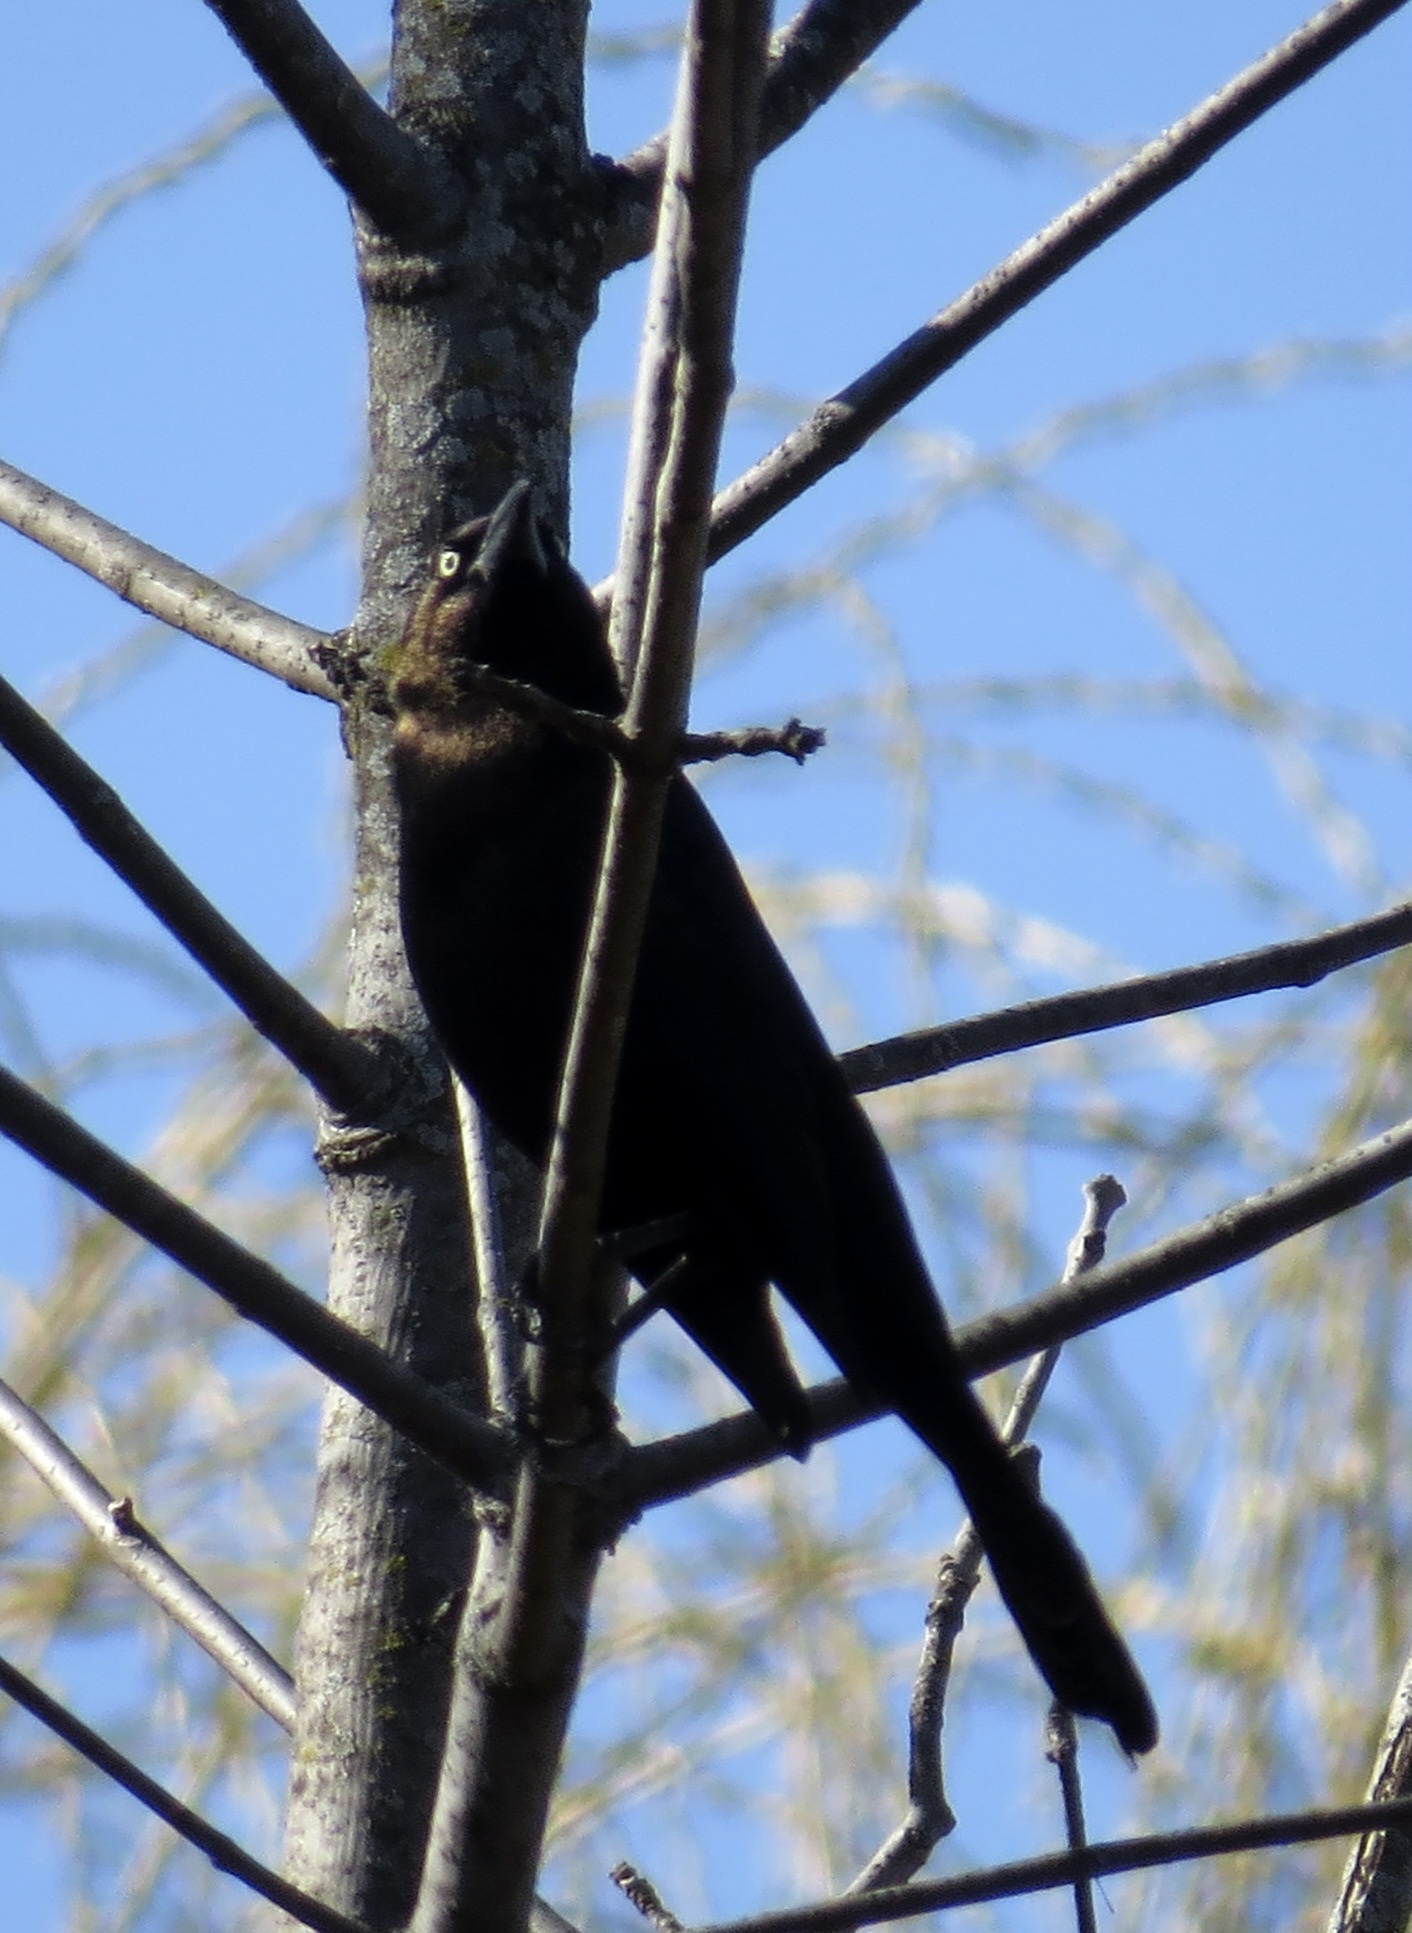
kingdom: Animalia
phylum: Chordata
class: Aves
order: Passeriformes
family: Icteridae
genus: Quiscalus
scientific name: Quiscalus quiscula
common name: Common grackle
